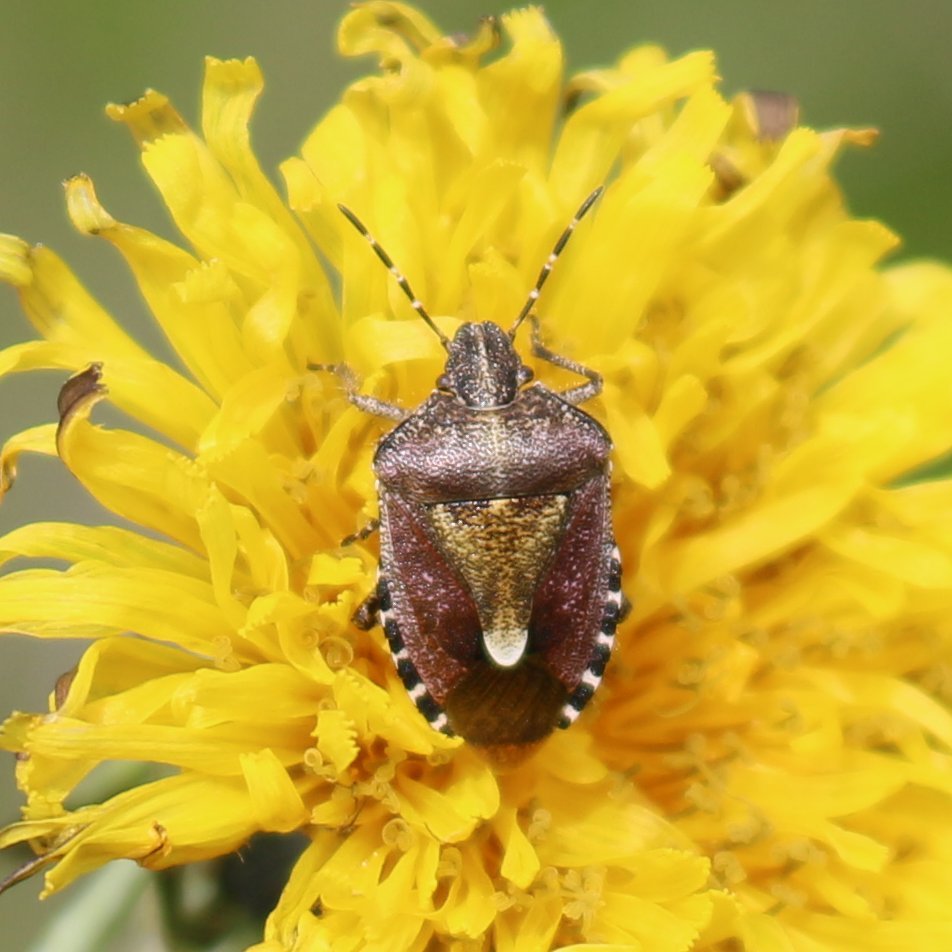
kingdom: Animalia
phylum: Arthropoda
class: Insecta
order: Hemiptera
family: Pentatomidae
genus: Dolycoris
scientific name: Dolycoris baccarum
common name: Sloe bug
